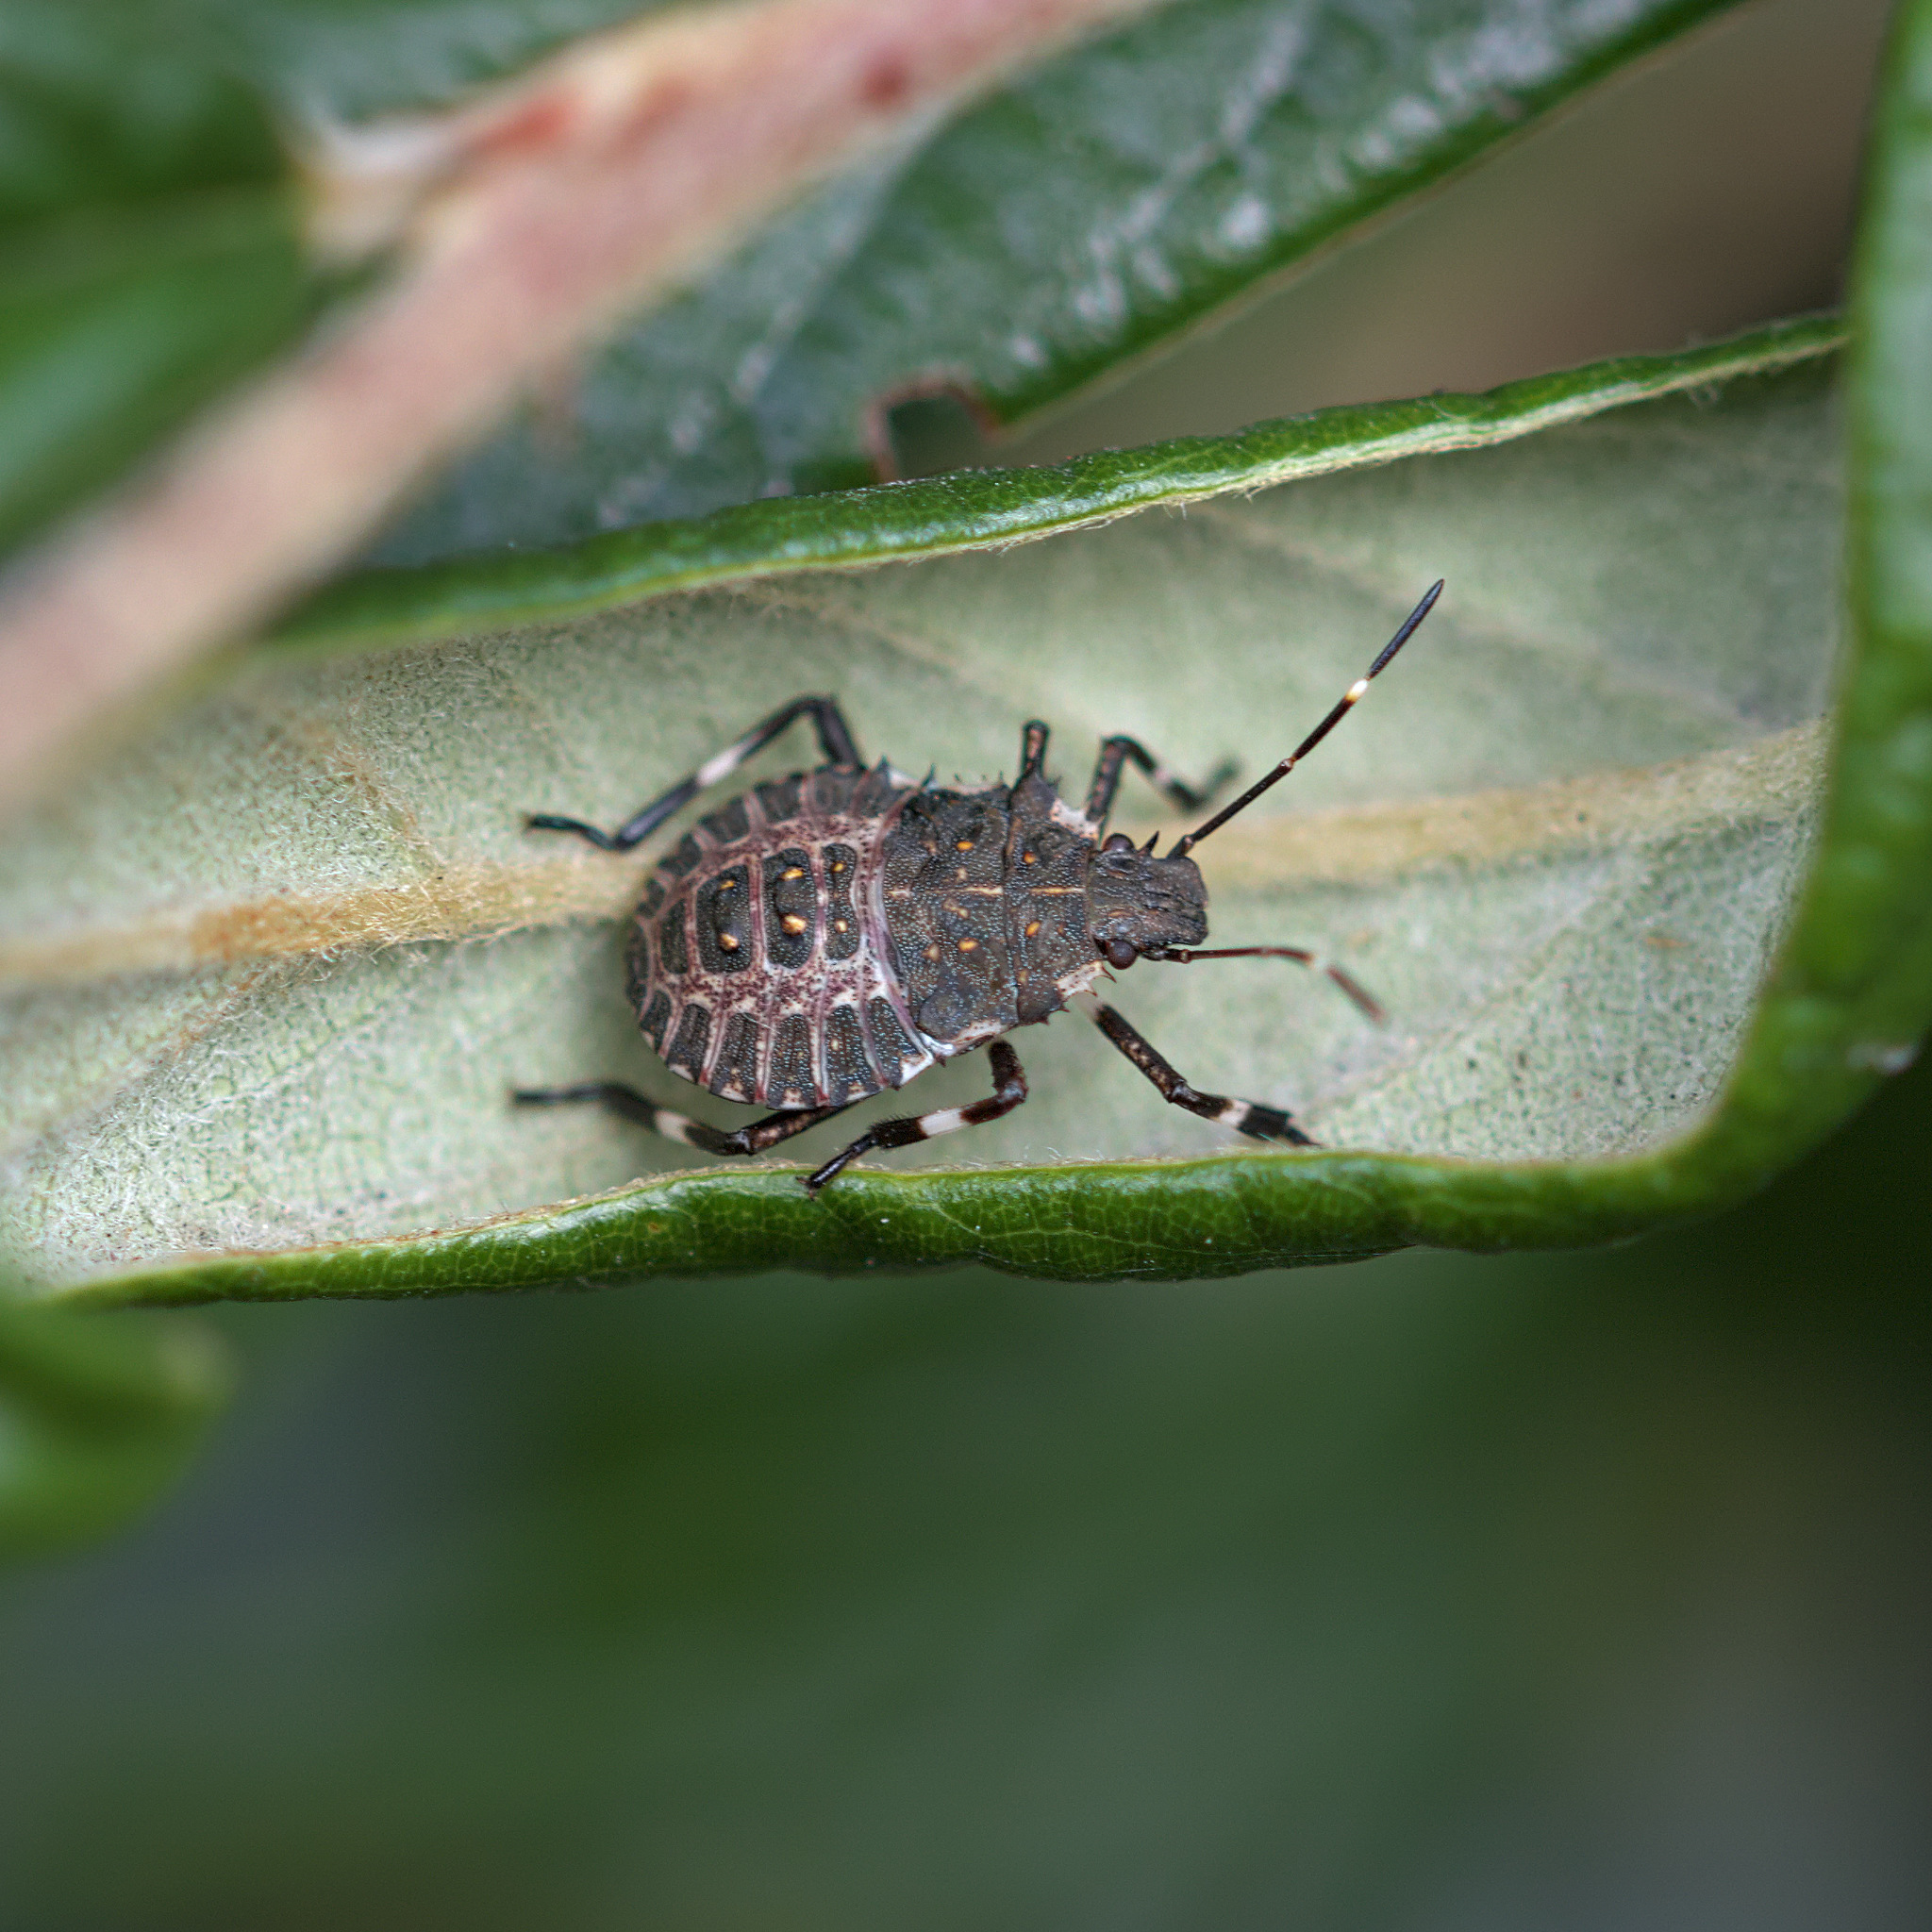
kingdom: Animalia
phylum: Arthropoda
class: Insecta
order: Hemiptera
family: Pentatomidae
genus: Halyomorpha
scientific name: Halyomorpha halys
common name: Brown marmorated stink bug
